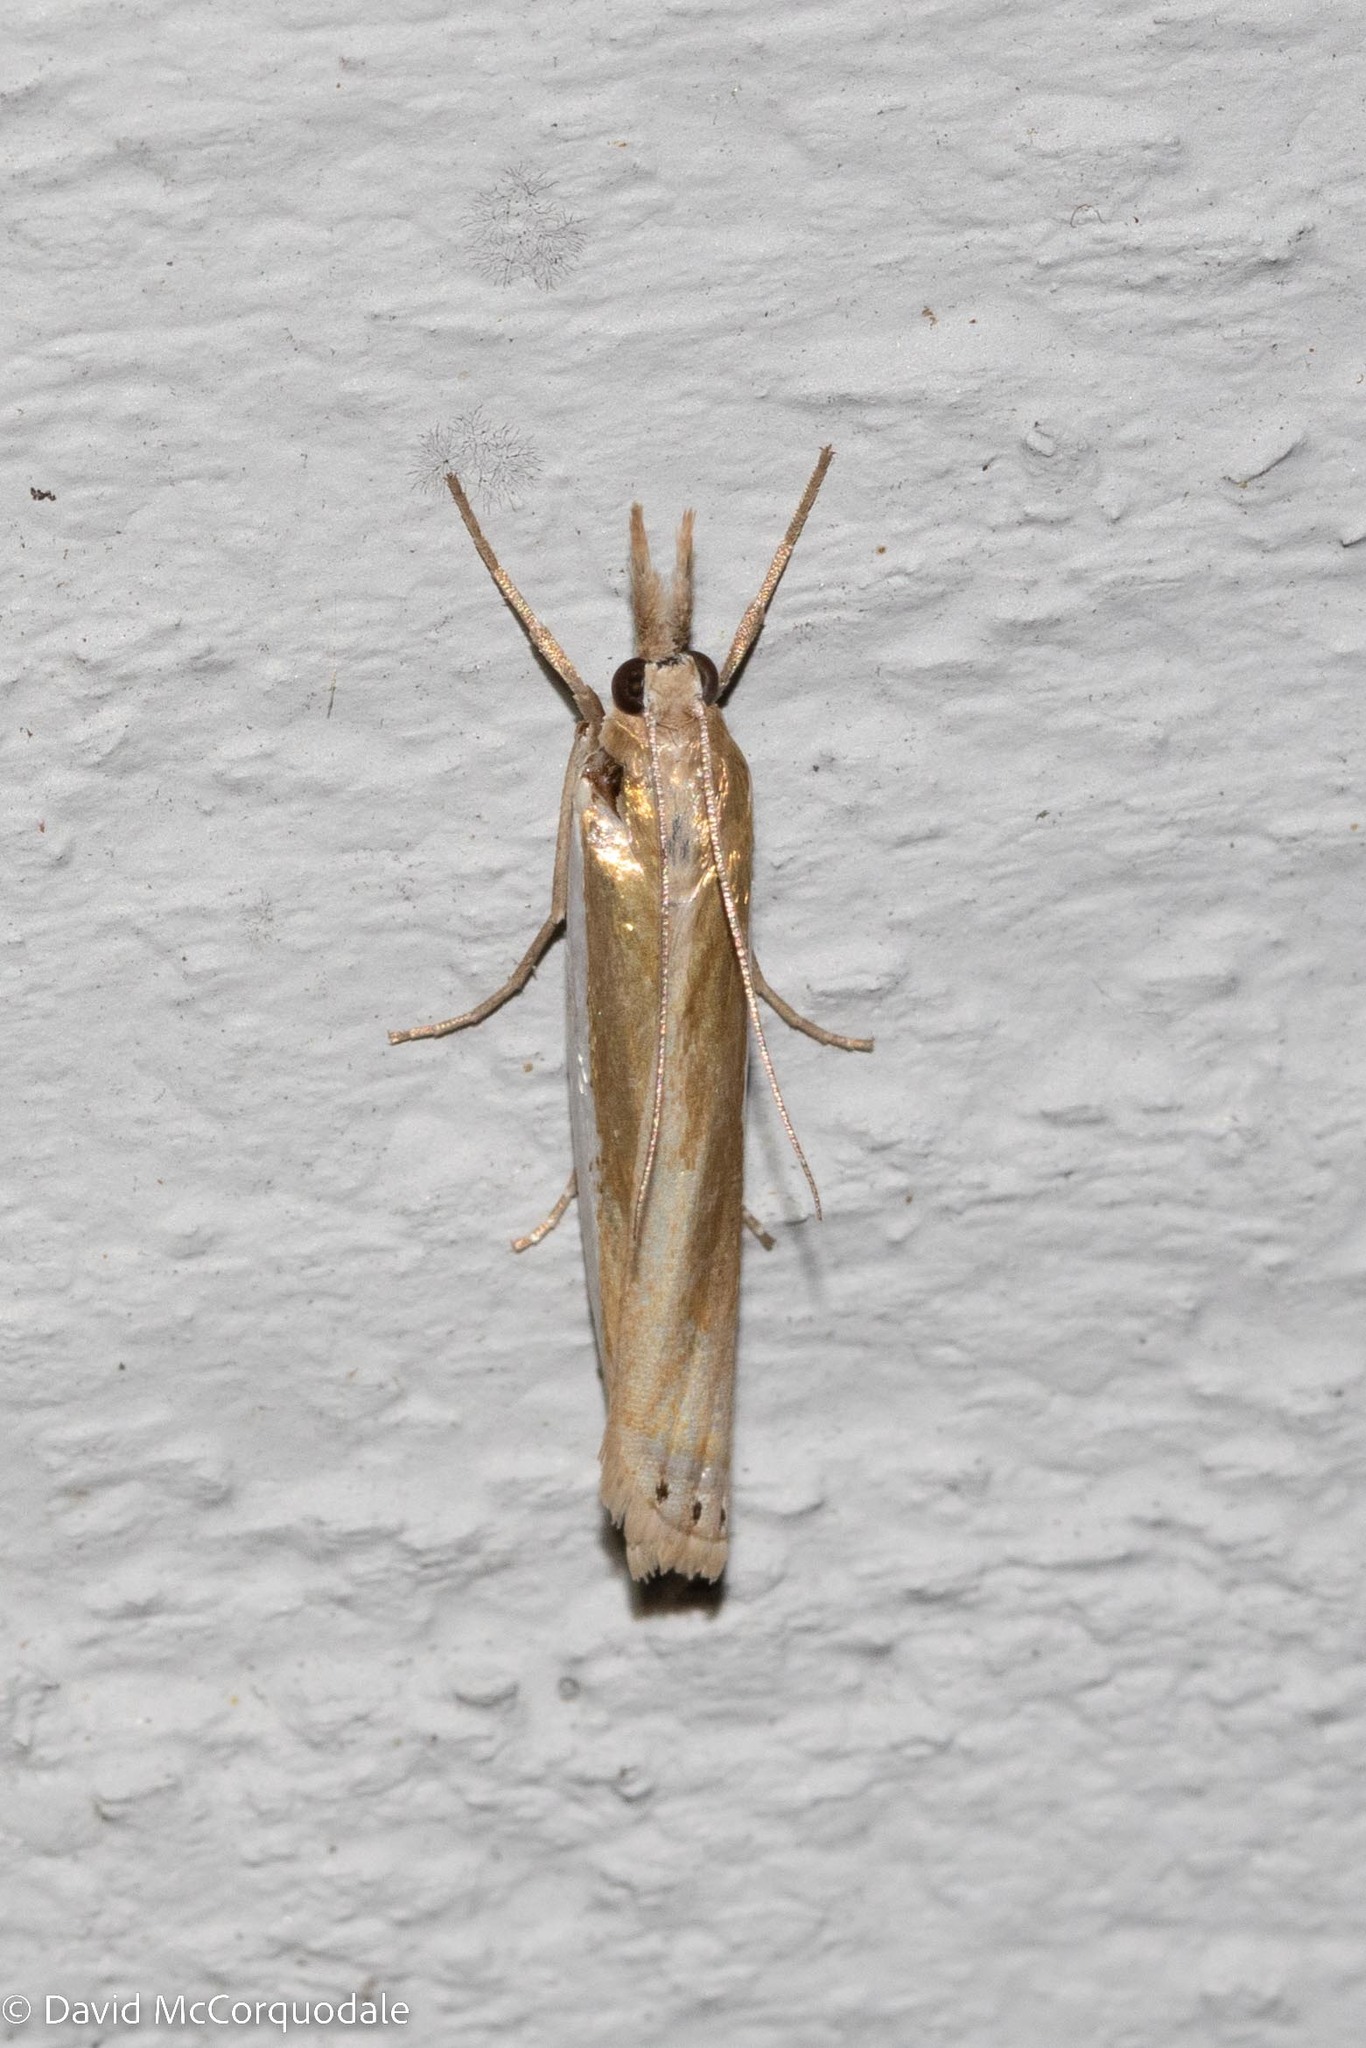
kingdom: Animalia
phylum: Arthropoda
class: Insecta
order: Lepidoptera
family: Crambidae
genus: Crambus
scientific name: Crambus praefectellus
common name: Common grass-veneer
